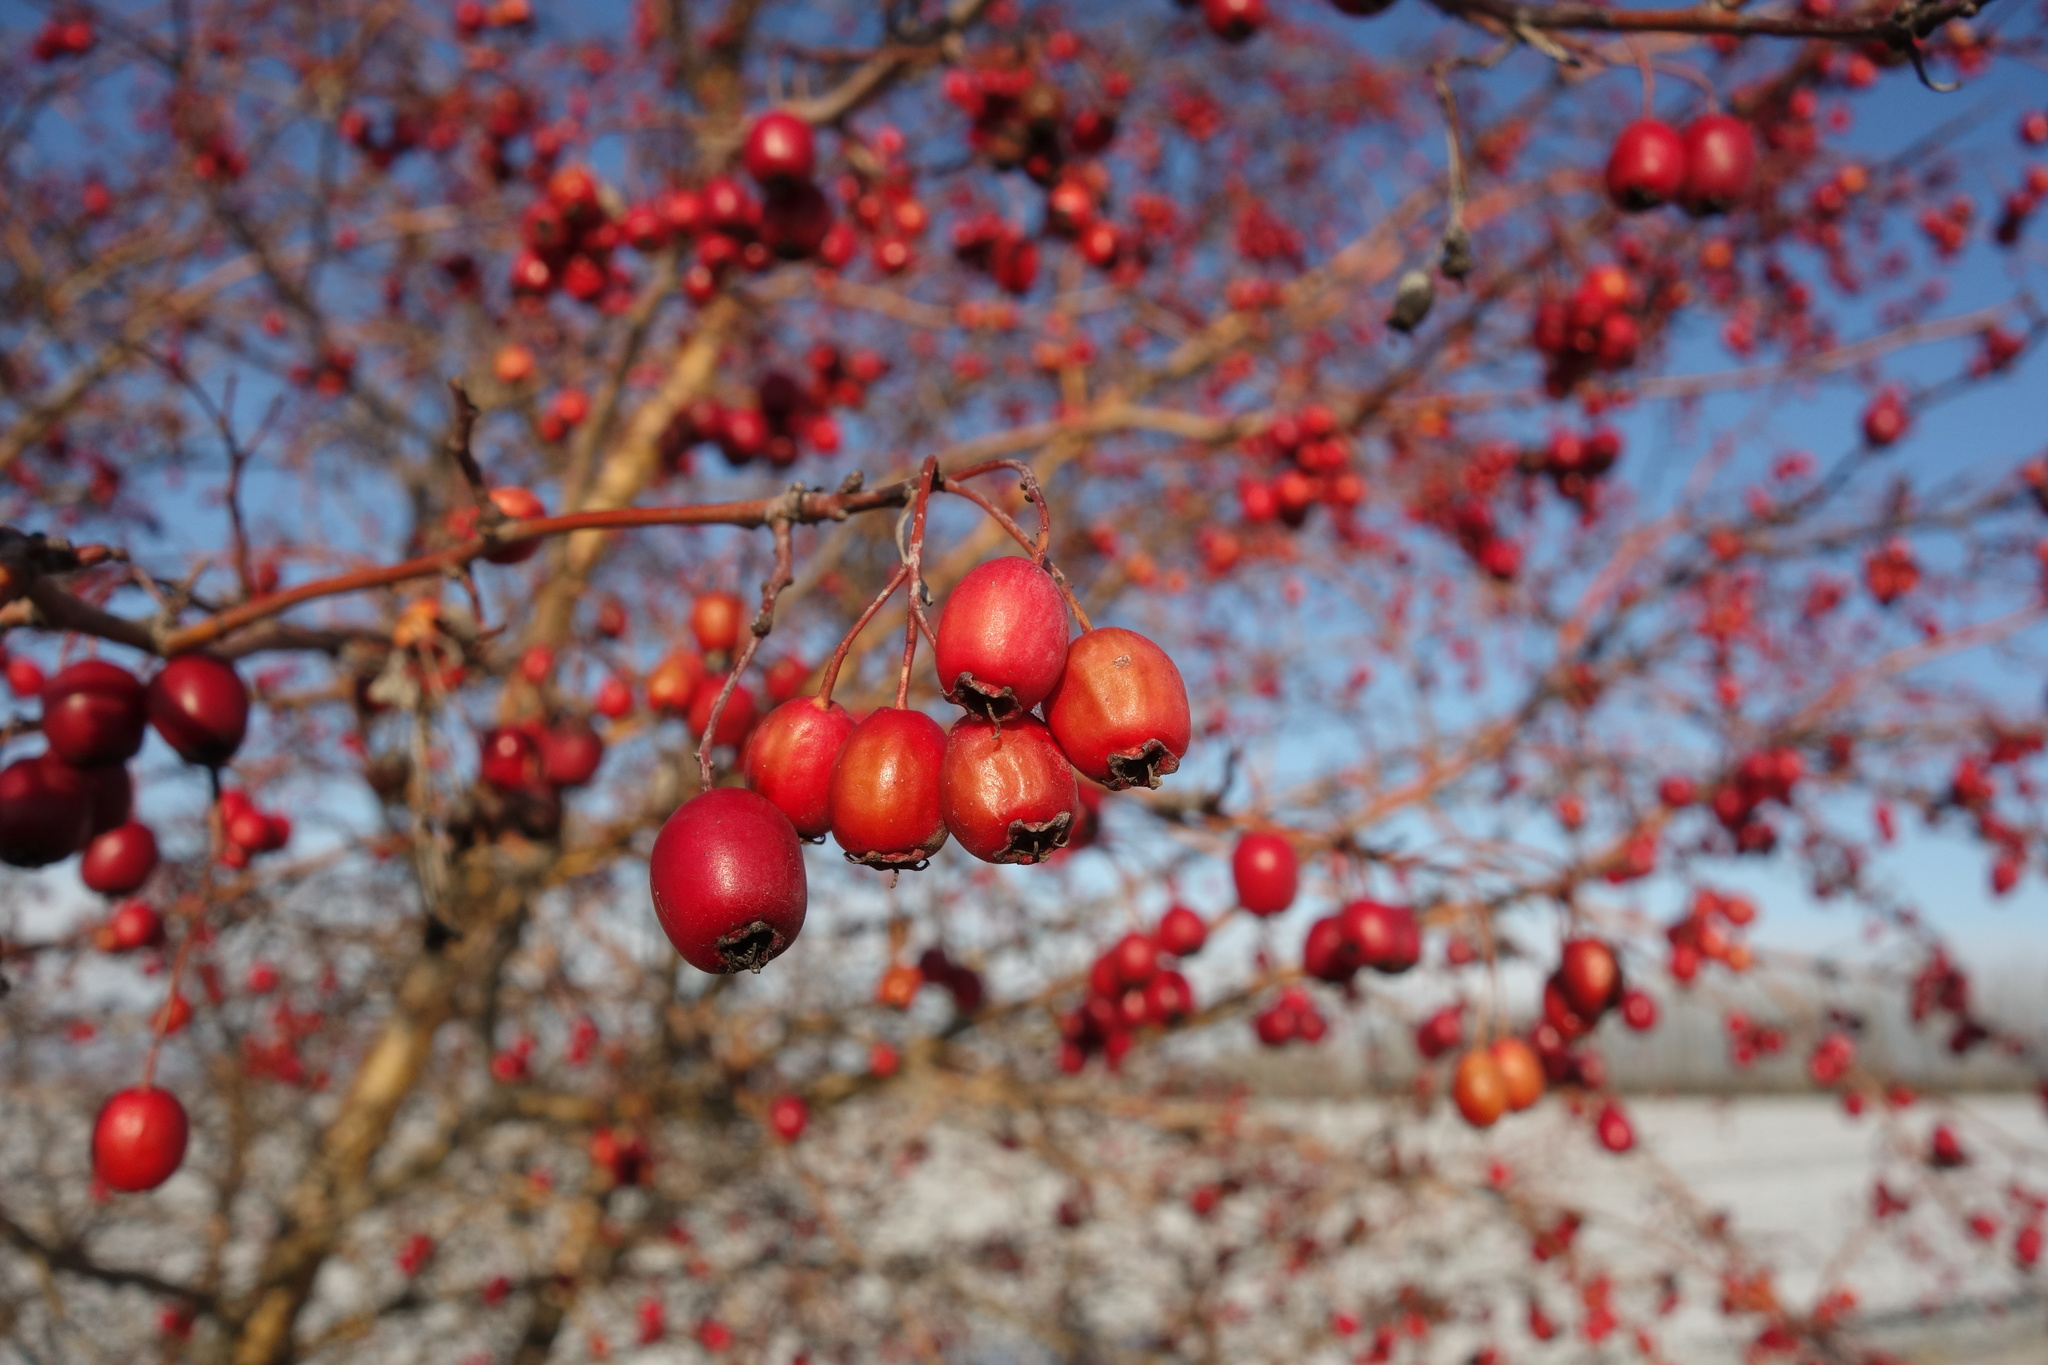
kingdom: Plantae
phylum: Tracheophyta
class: Magnoliopsida
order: Rosales
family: Rosaceae
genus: Crataegus
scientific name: Crataegus monogyna
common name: Hawthorn
